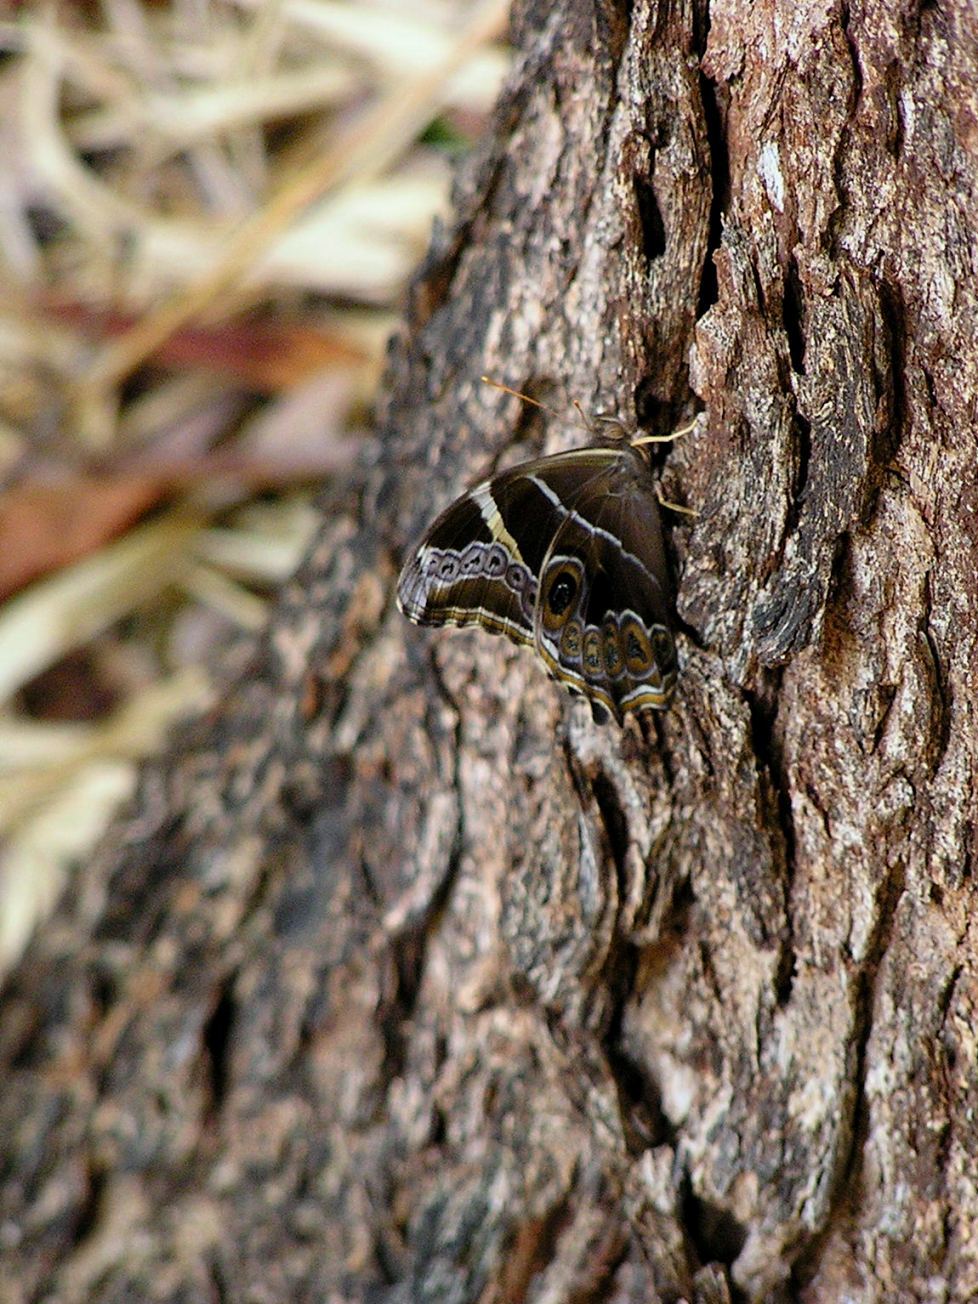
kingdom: Animalia
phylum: Arthropoda
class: Insecta
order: Lepidoptera
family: Nymphalidae
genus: Lethe
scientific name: Lethe europa
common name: Bamboo treebrown
